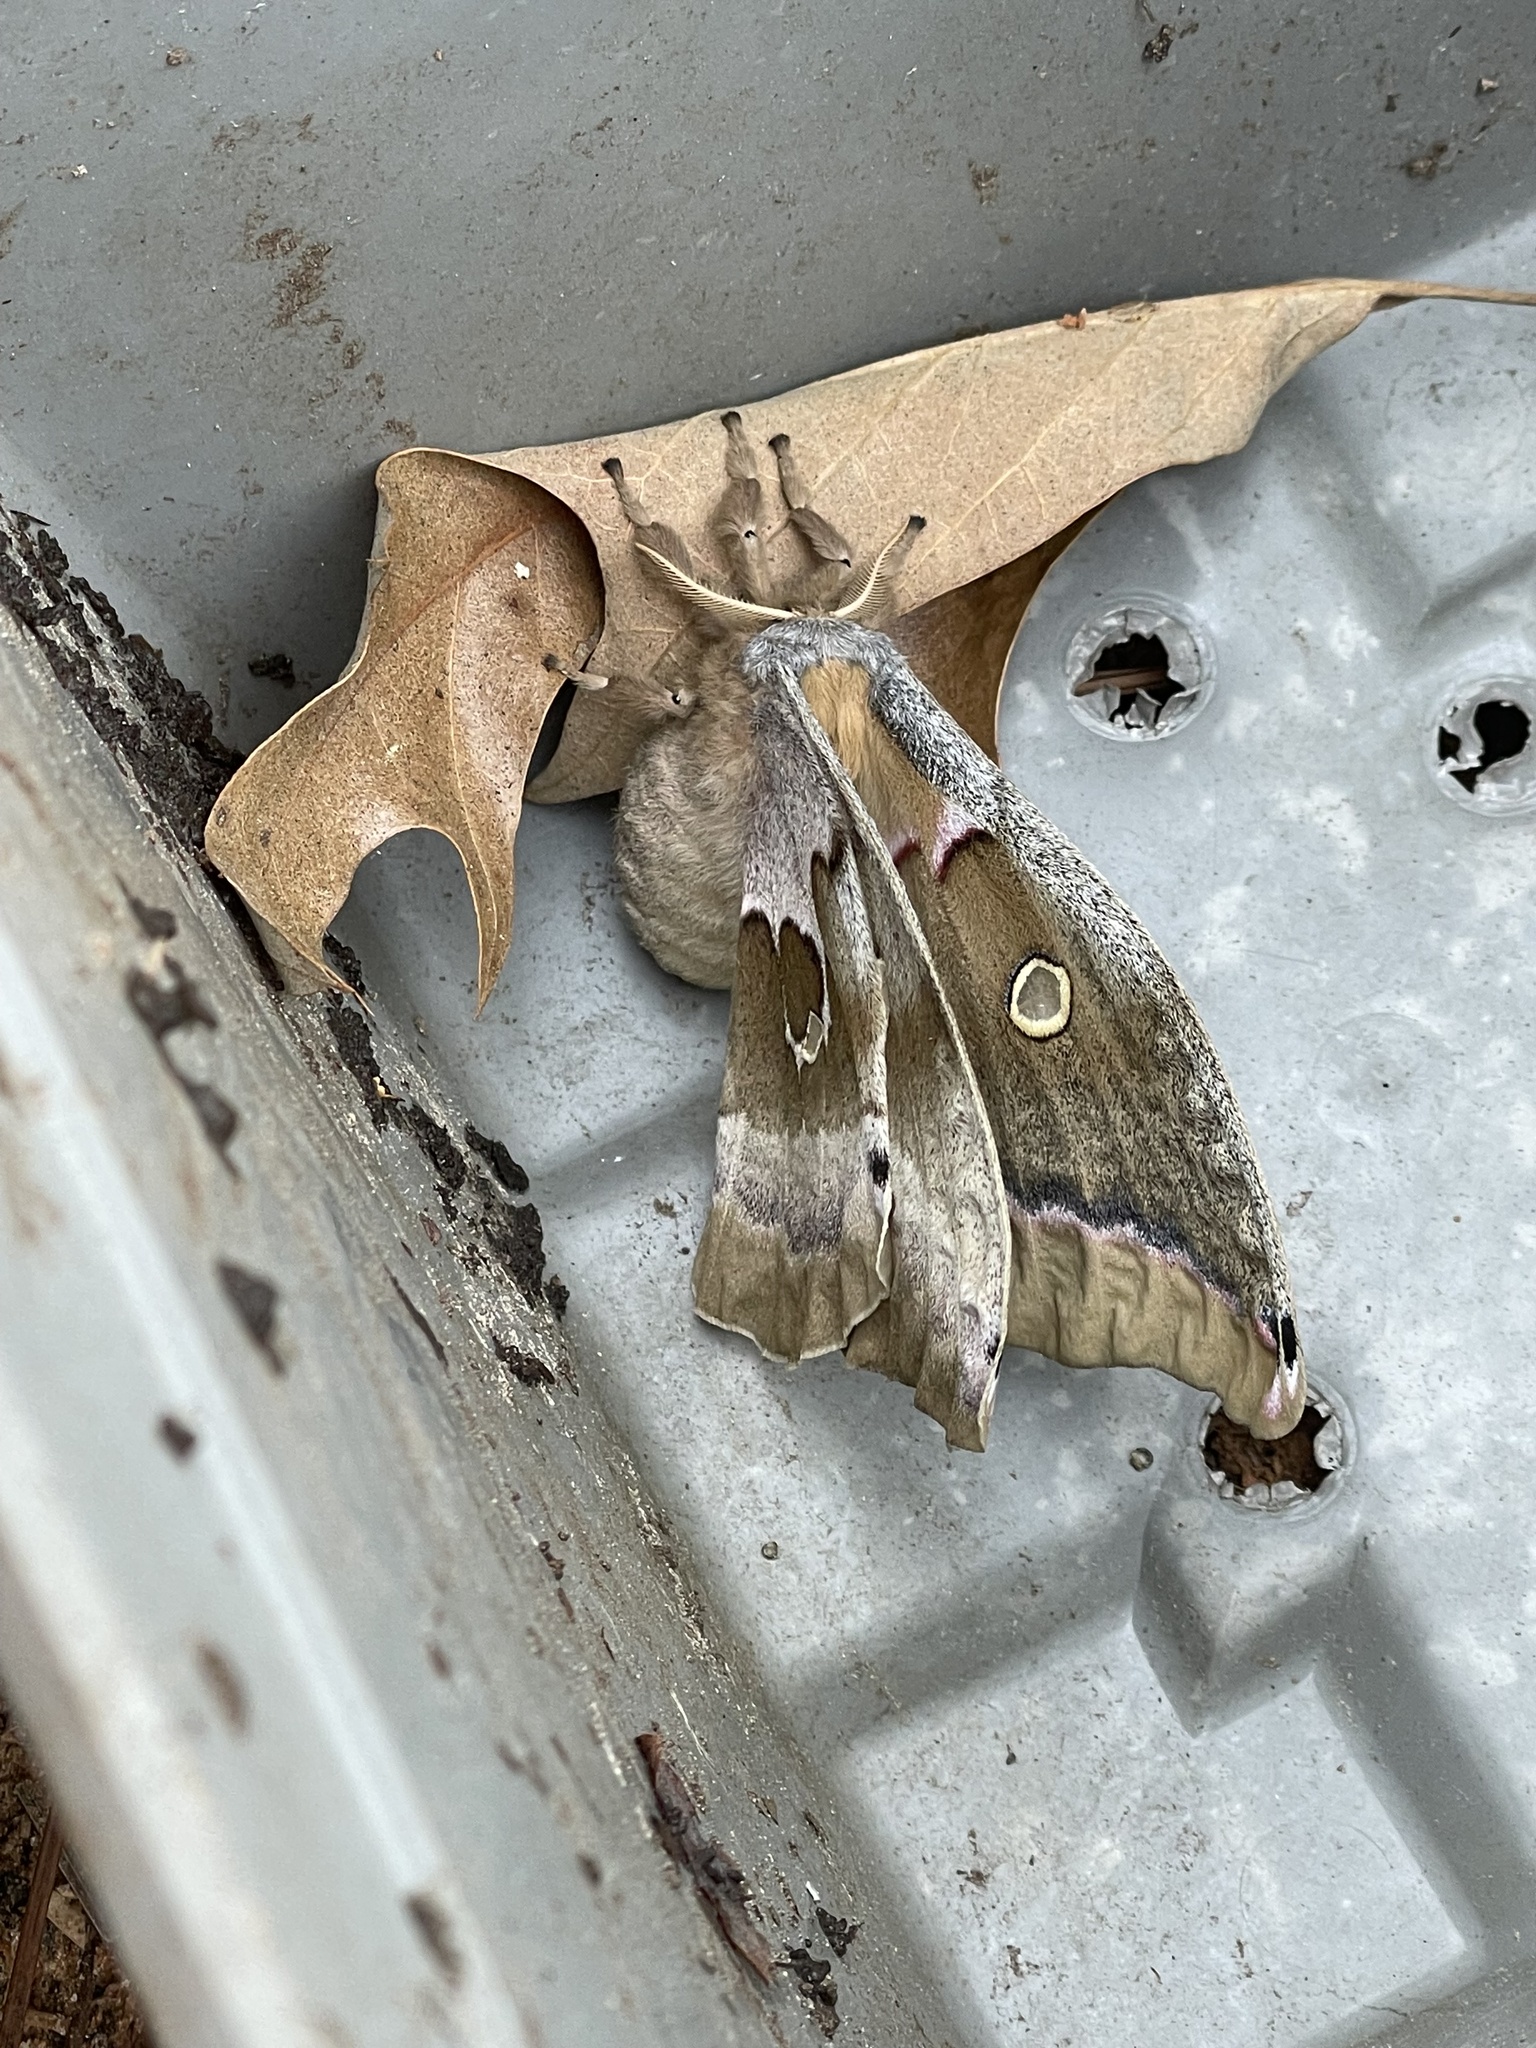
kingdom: Animalia
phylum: Arthropoda
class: Insecta
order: Lepidoptera
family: Saturniidae
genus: Antheraea
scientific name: Antheraea polyphemus
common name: Polyphemus moth
